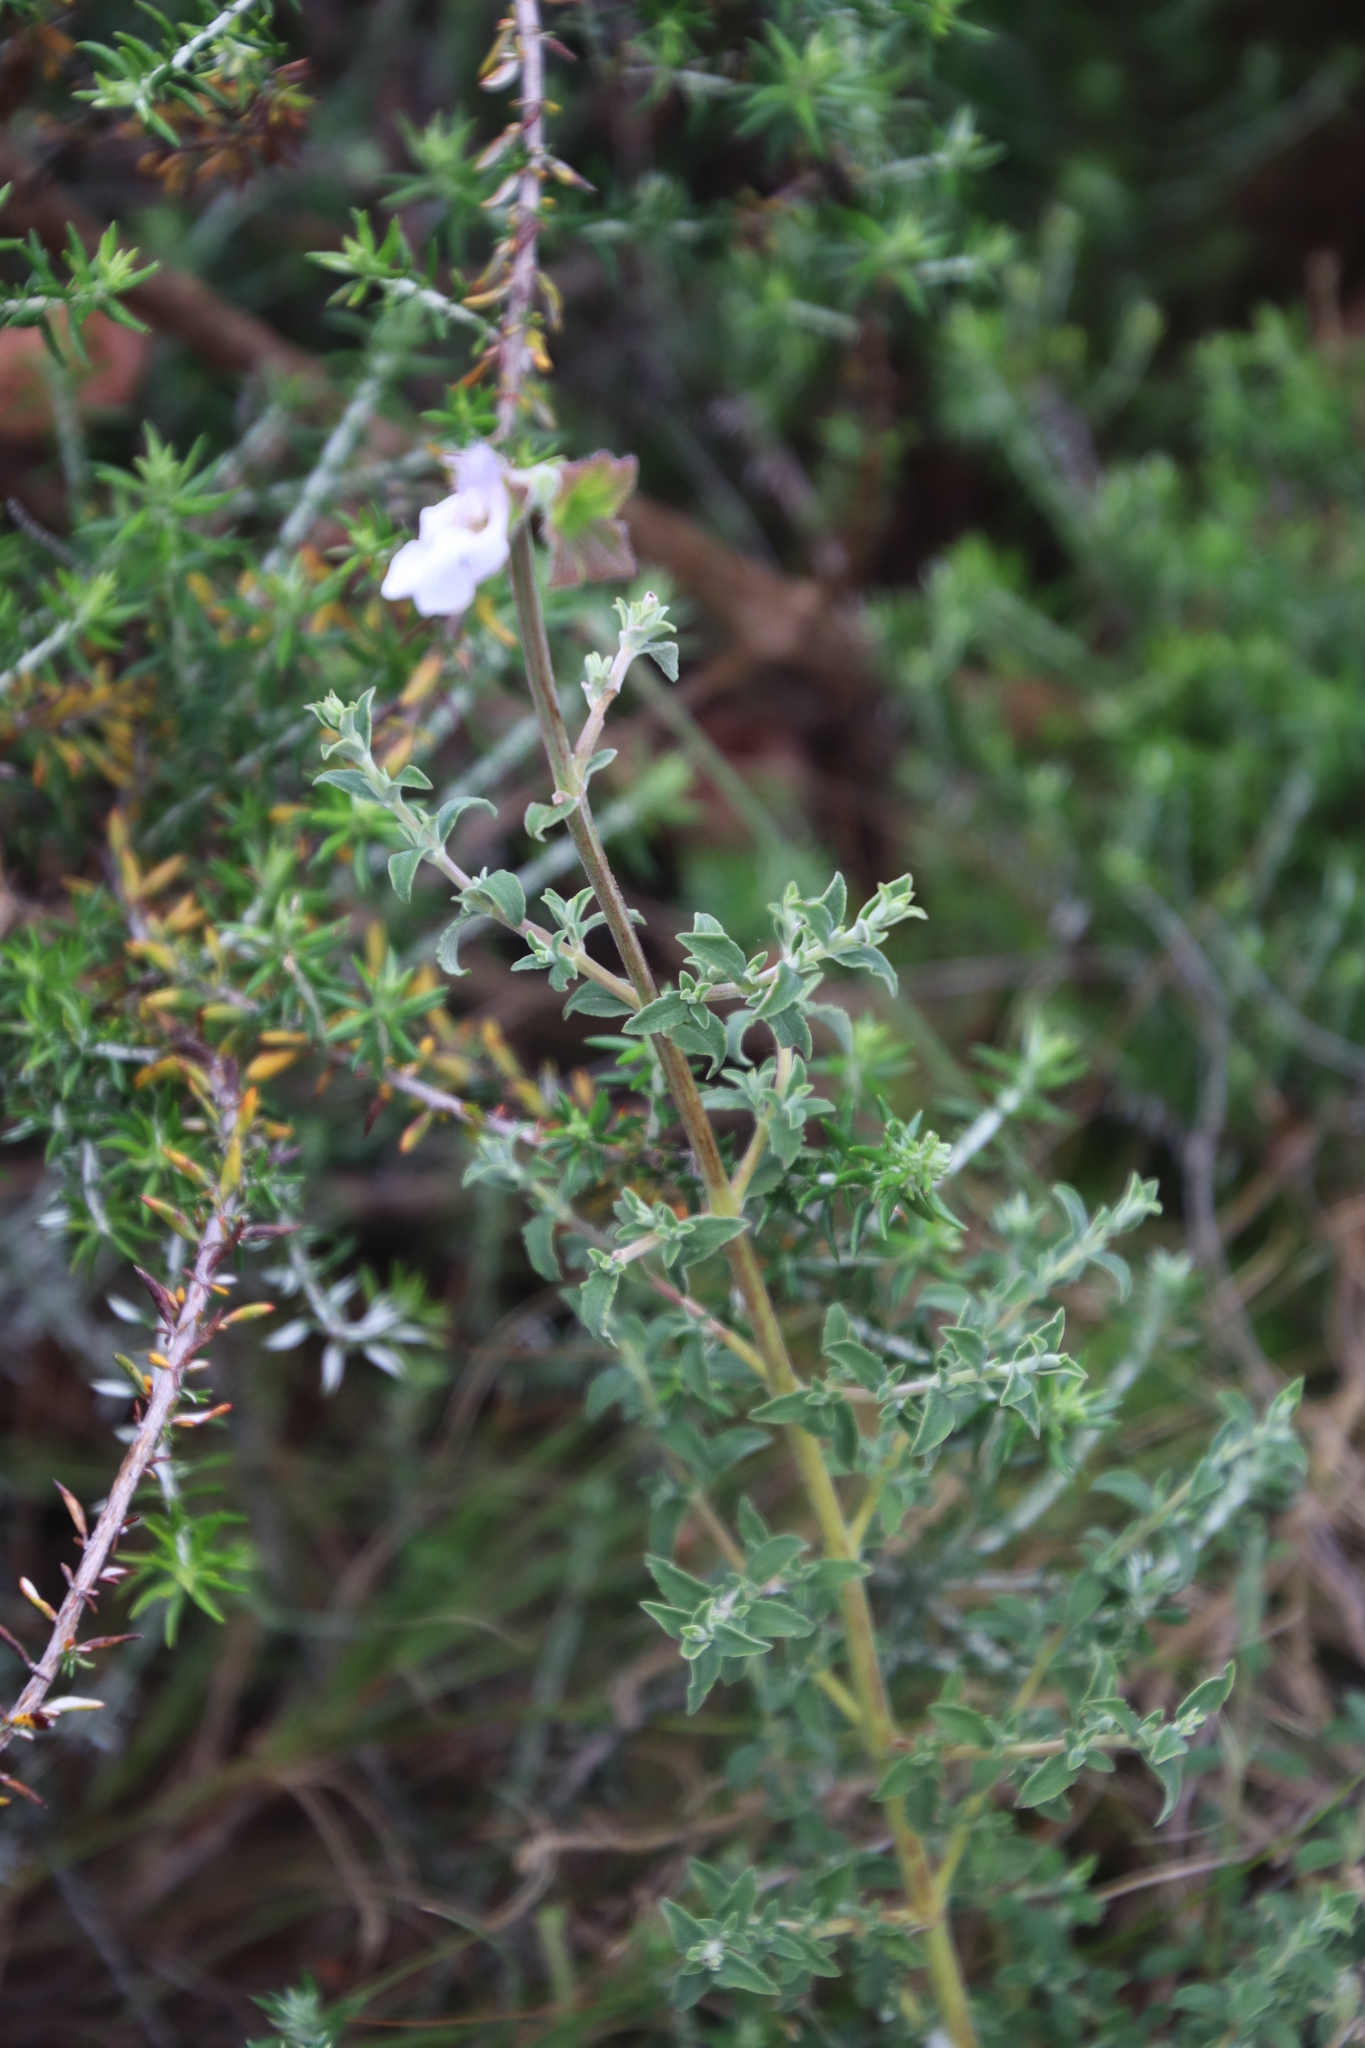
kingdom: Plantae
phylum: Tracheophyta
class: Magnoliopsida
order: Lamiales
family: Lamiaceae
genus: Salvia
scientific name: Salvia africana
